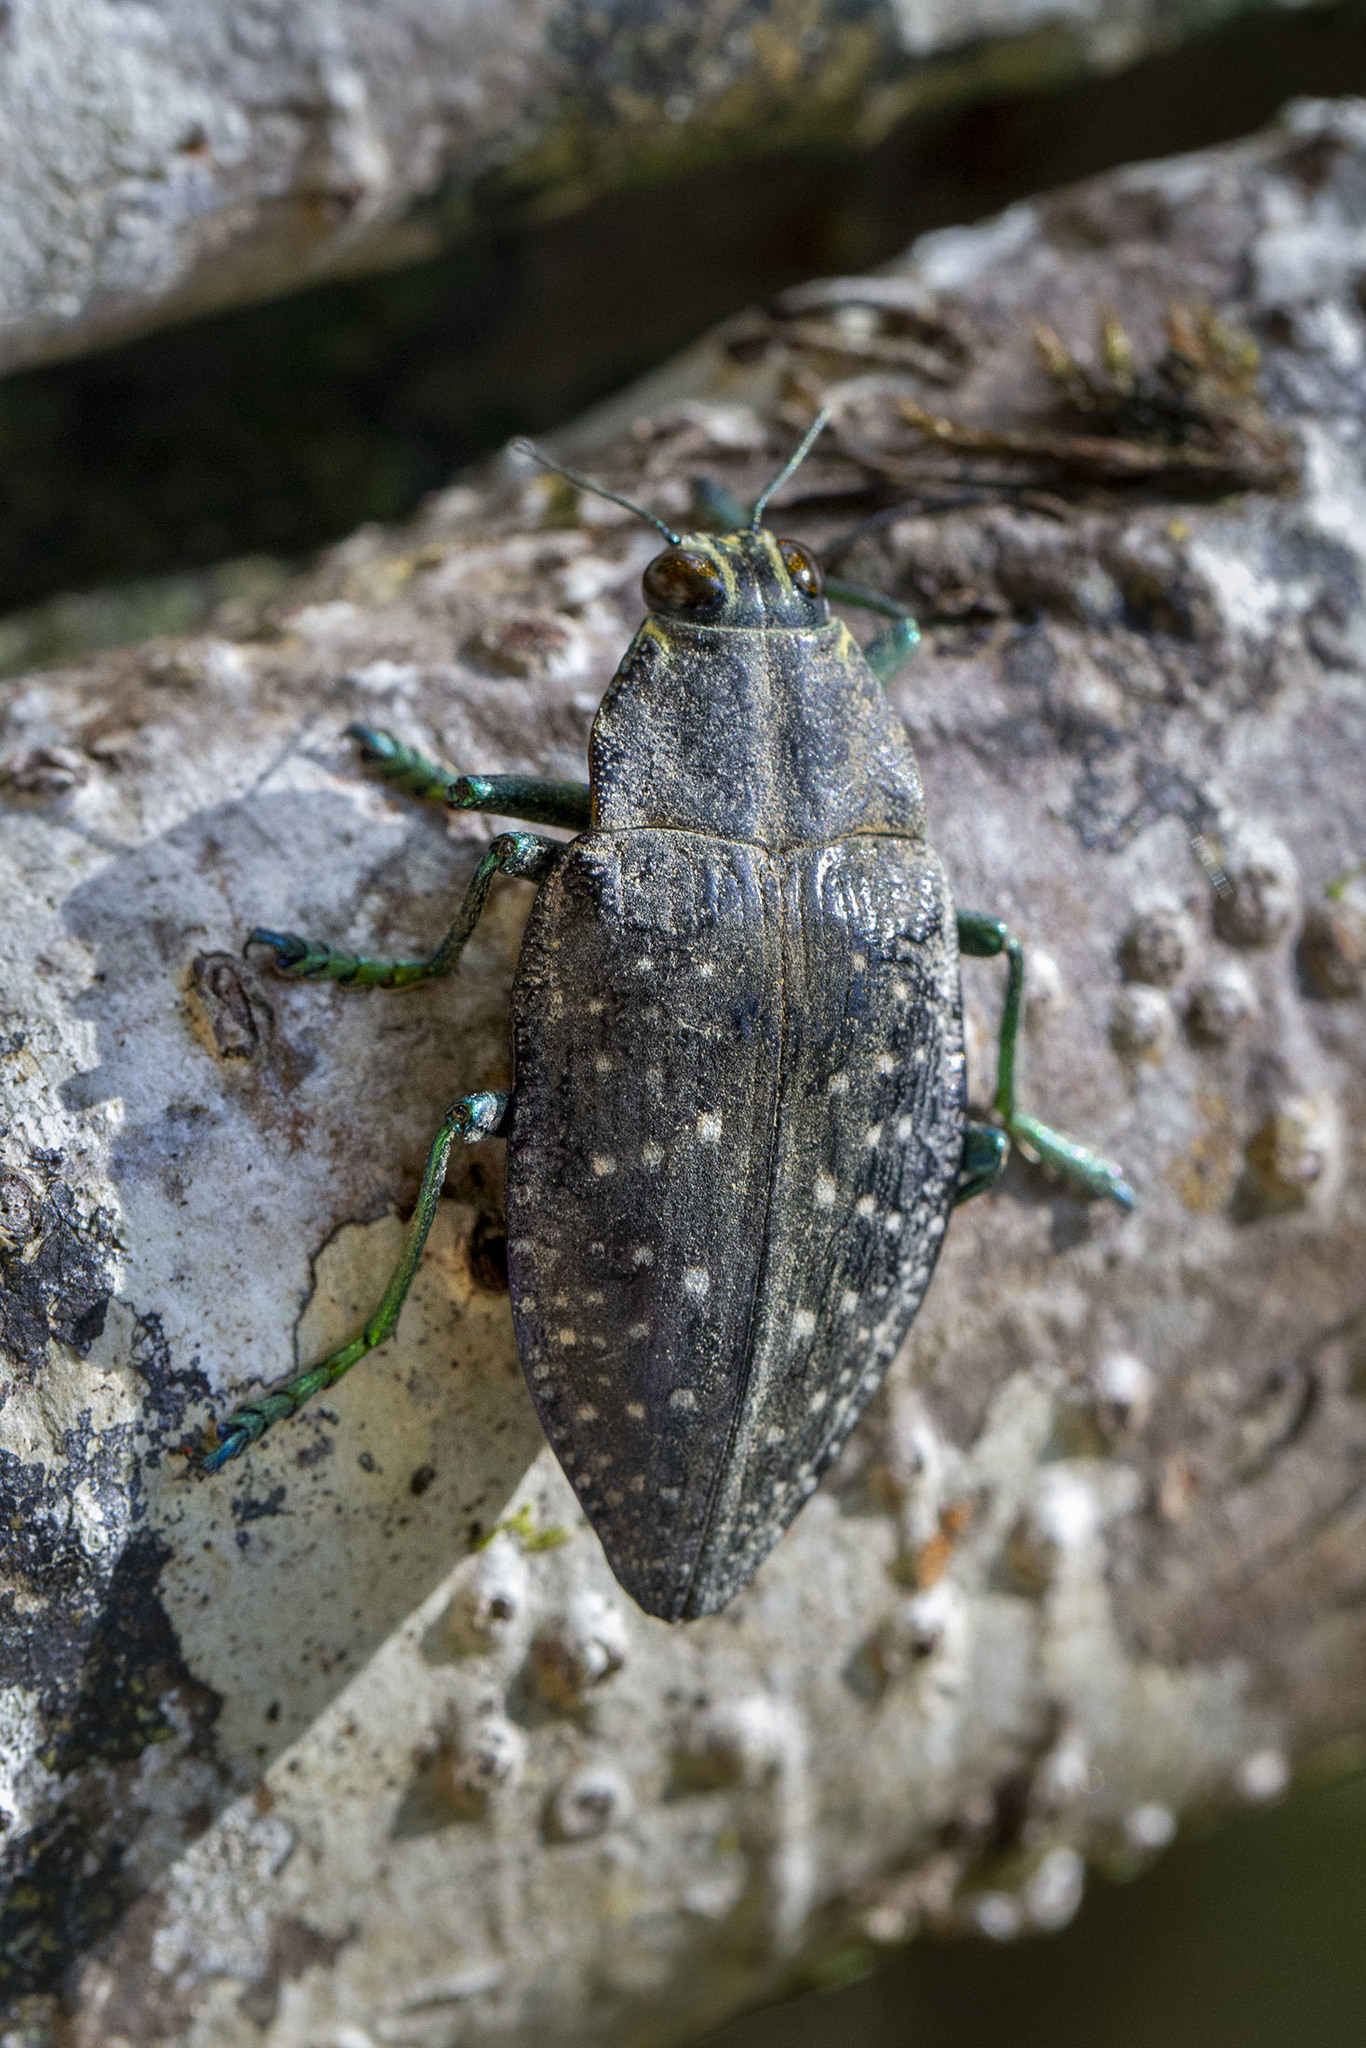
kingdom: Animalia
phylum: Arthropoda
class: Insecta
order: Coleoptera
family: Buprestidae
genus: Polybothris
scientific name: Polybothris navicularis
